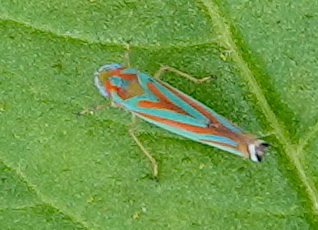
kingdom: Animalia
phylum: Arthropoda
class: Insecta
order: Hemiptera
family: Cicadellidae
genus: Sibovia
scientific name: Sibovia prodigiosa
